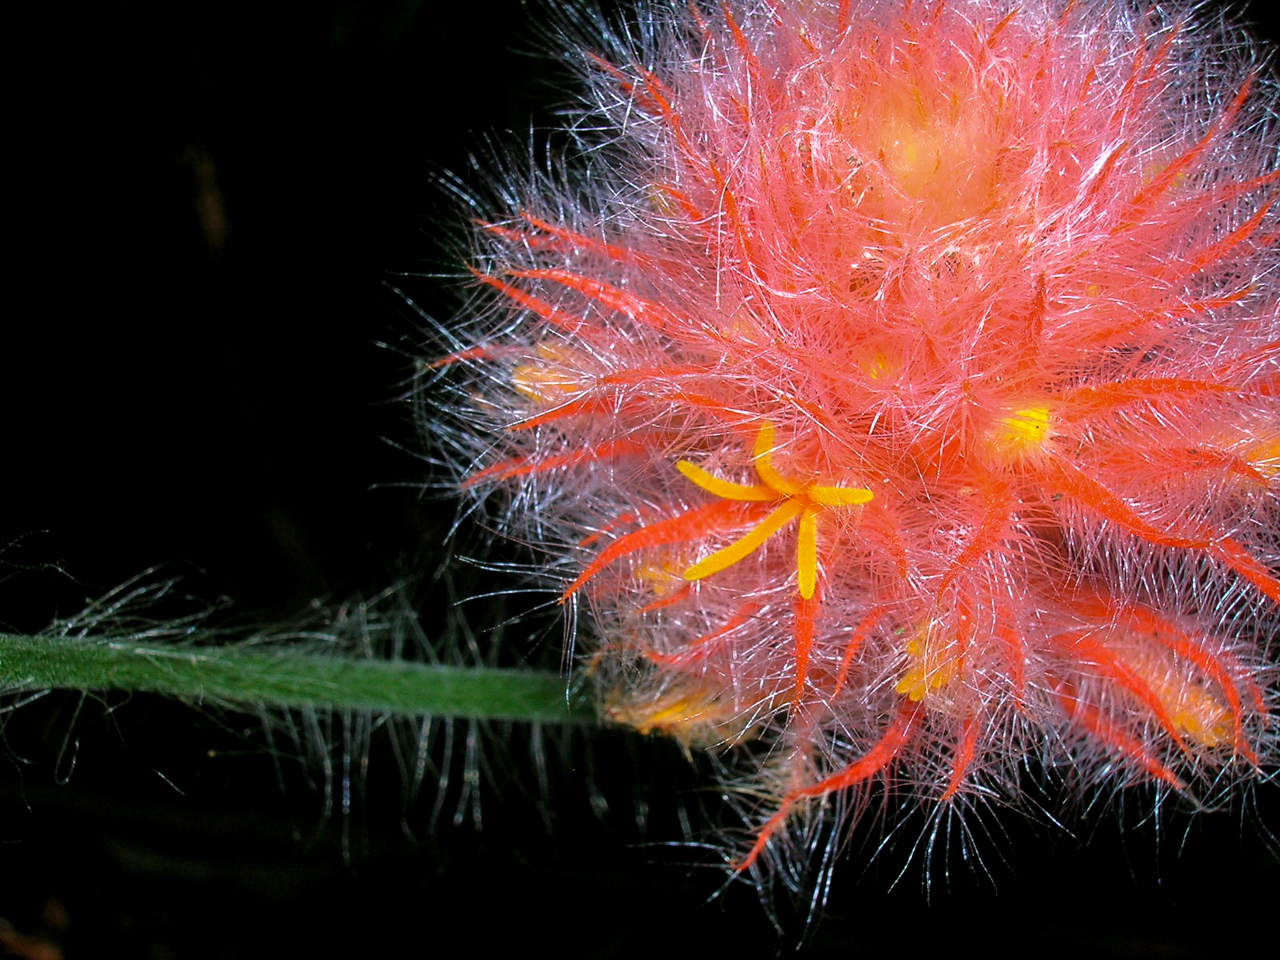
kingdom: Plantae
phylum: Tracheophyta
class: Magnoliopsida
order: Cucurbitales
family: Cucurbitaceae
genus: Gurania
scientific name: Gurania eriantha
